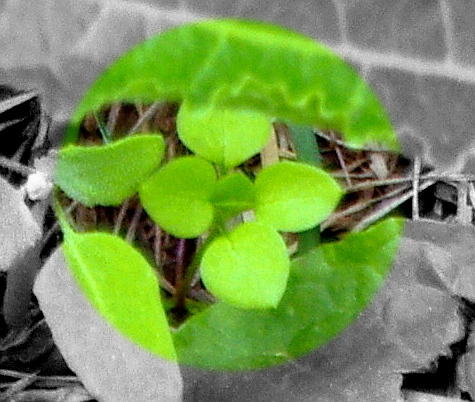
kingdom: Plantae
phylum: Tracheophyta
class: Magnoliopsida
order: Caryophyllales
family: Caryophyllaceae
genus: Stellaria
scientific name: Stellaria media
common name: Common chickweed
